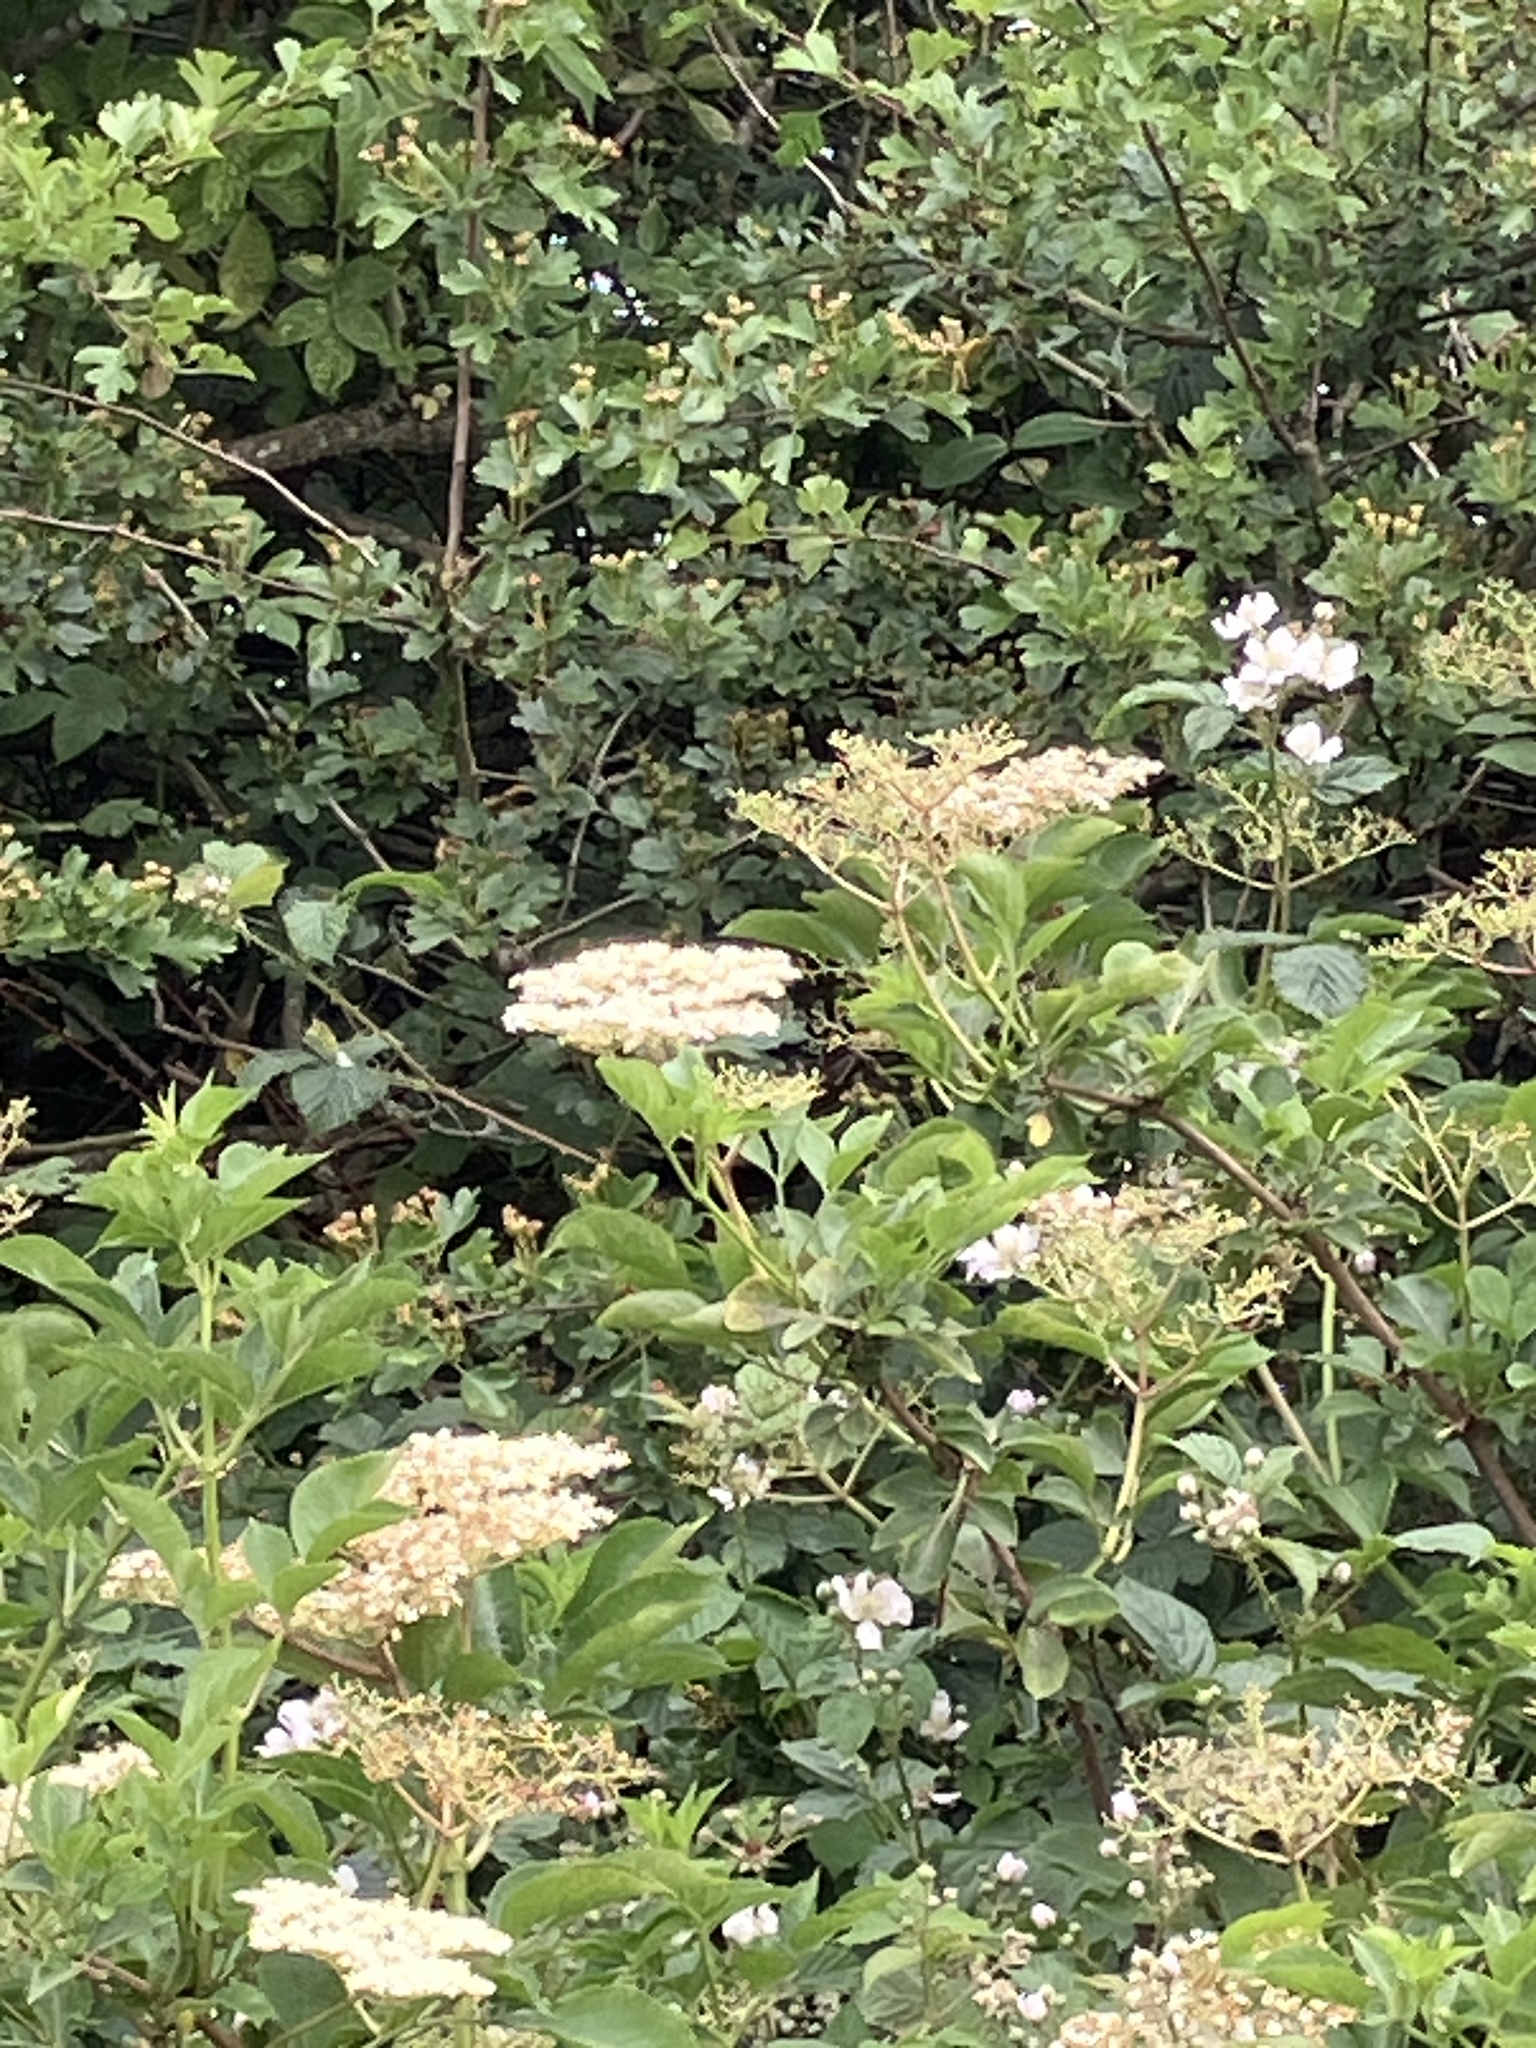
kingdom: Plantae
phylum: Tracheophyta
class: Magnoliopsida
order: Dipsacales
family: Viburnaceae
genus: Sambucus
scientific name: Sambucus nigra
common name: Elder
